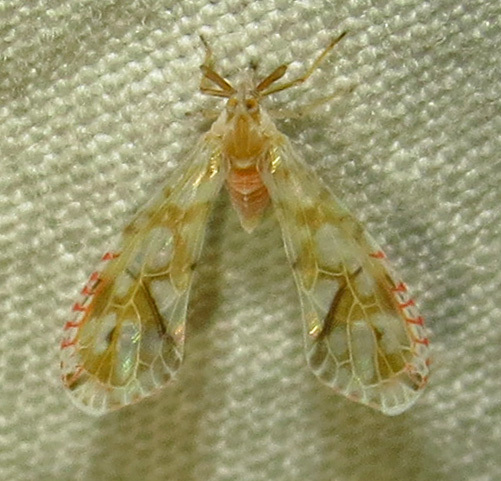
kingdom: Animalia
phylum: Arthropoda
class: Insecta
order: Hemiptera
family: Derbidae
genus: Anotia
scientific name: Anotia kirkaldyi
